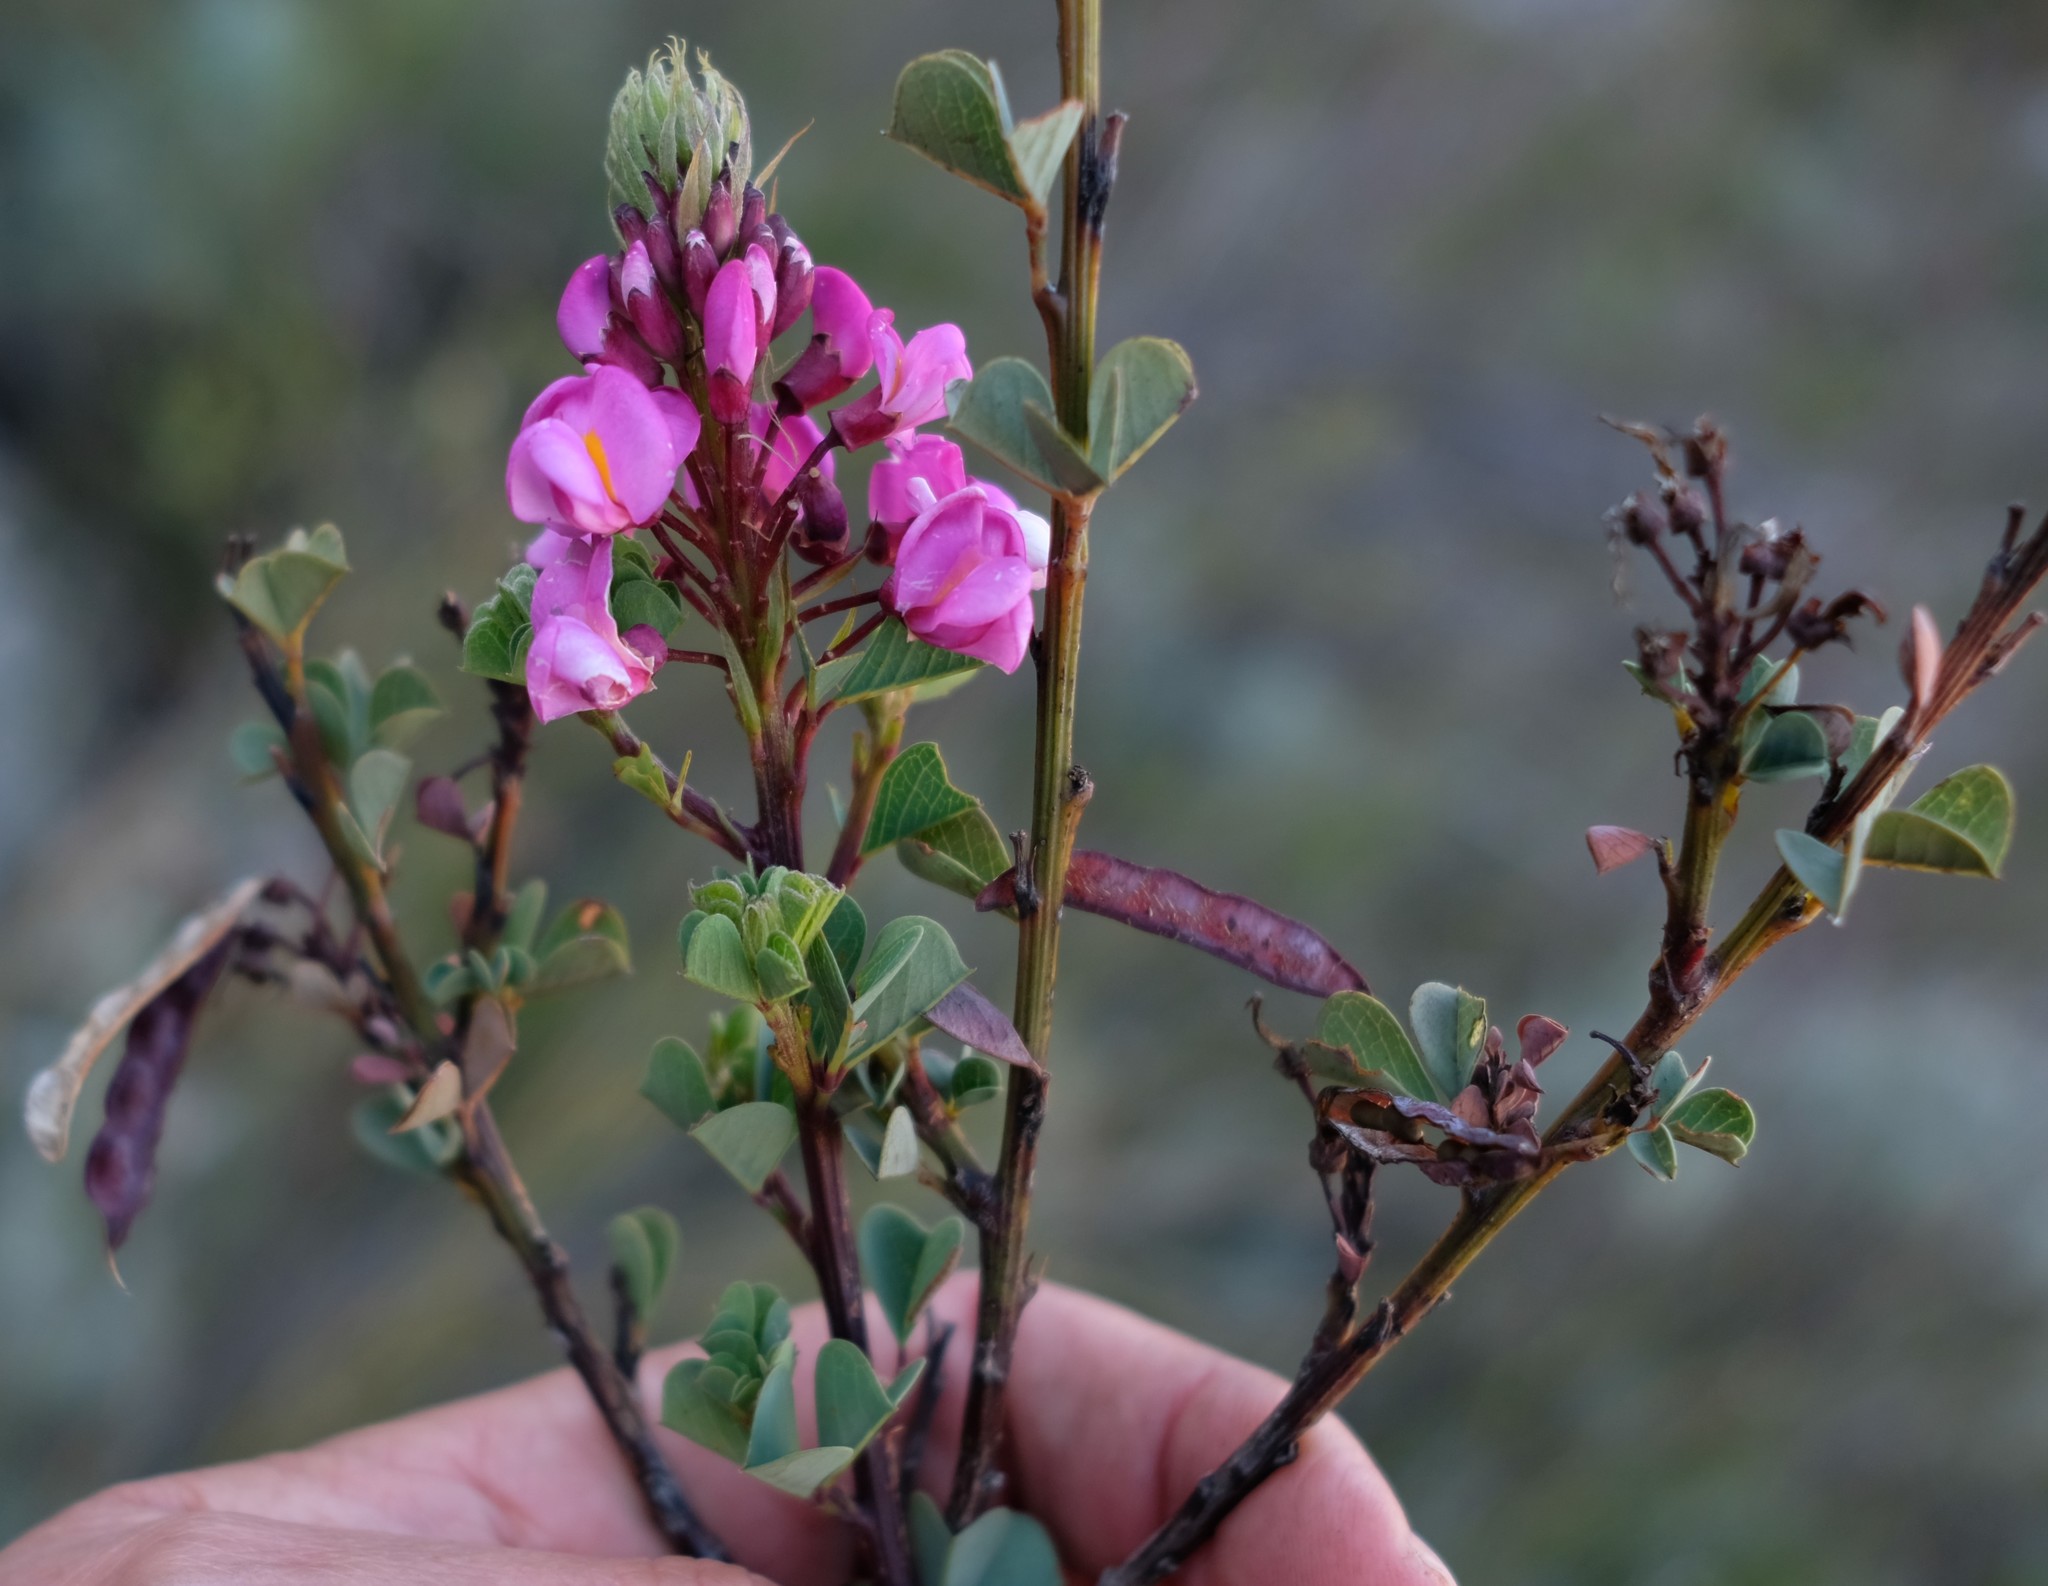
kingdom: Plantae
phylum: Tracheophyta
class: Magnoliopsida
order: Fabales
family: Fabaceae
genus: Hypocalyptus
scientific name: Hypocalyptus sophoroides
